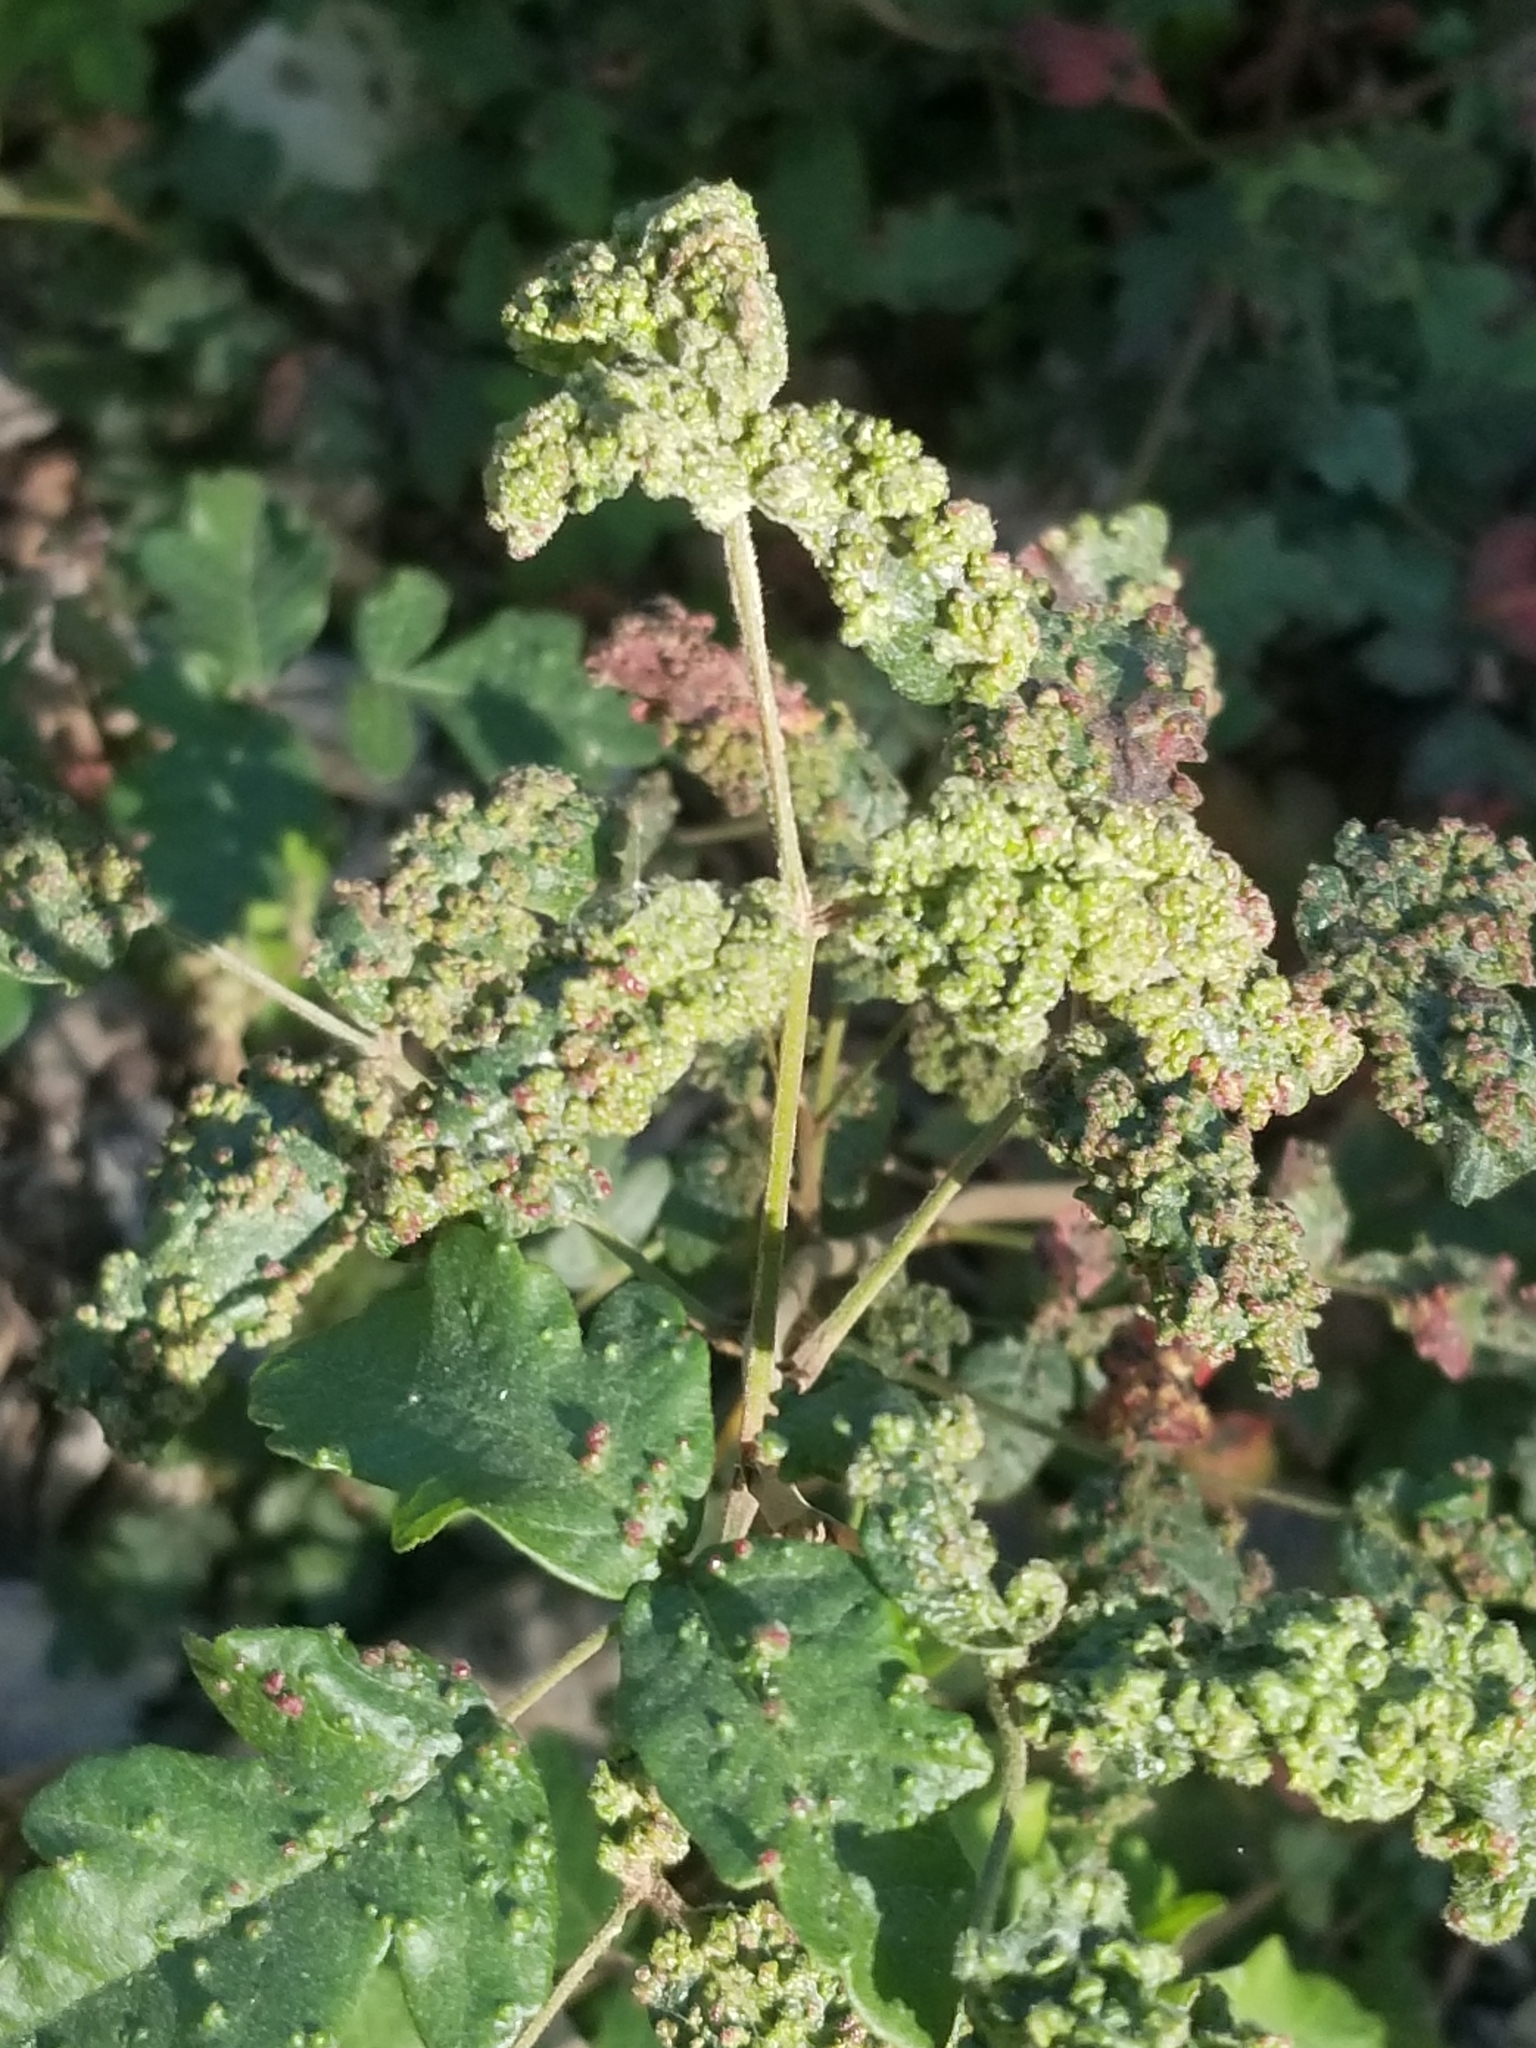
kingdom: Animalia
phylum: Arthropoda
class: Arachnida
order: Trombidiformes
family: Eriophyidae
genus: Aculops
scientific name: Aculops
